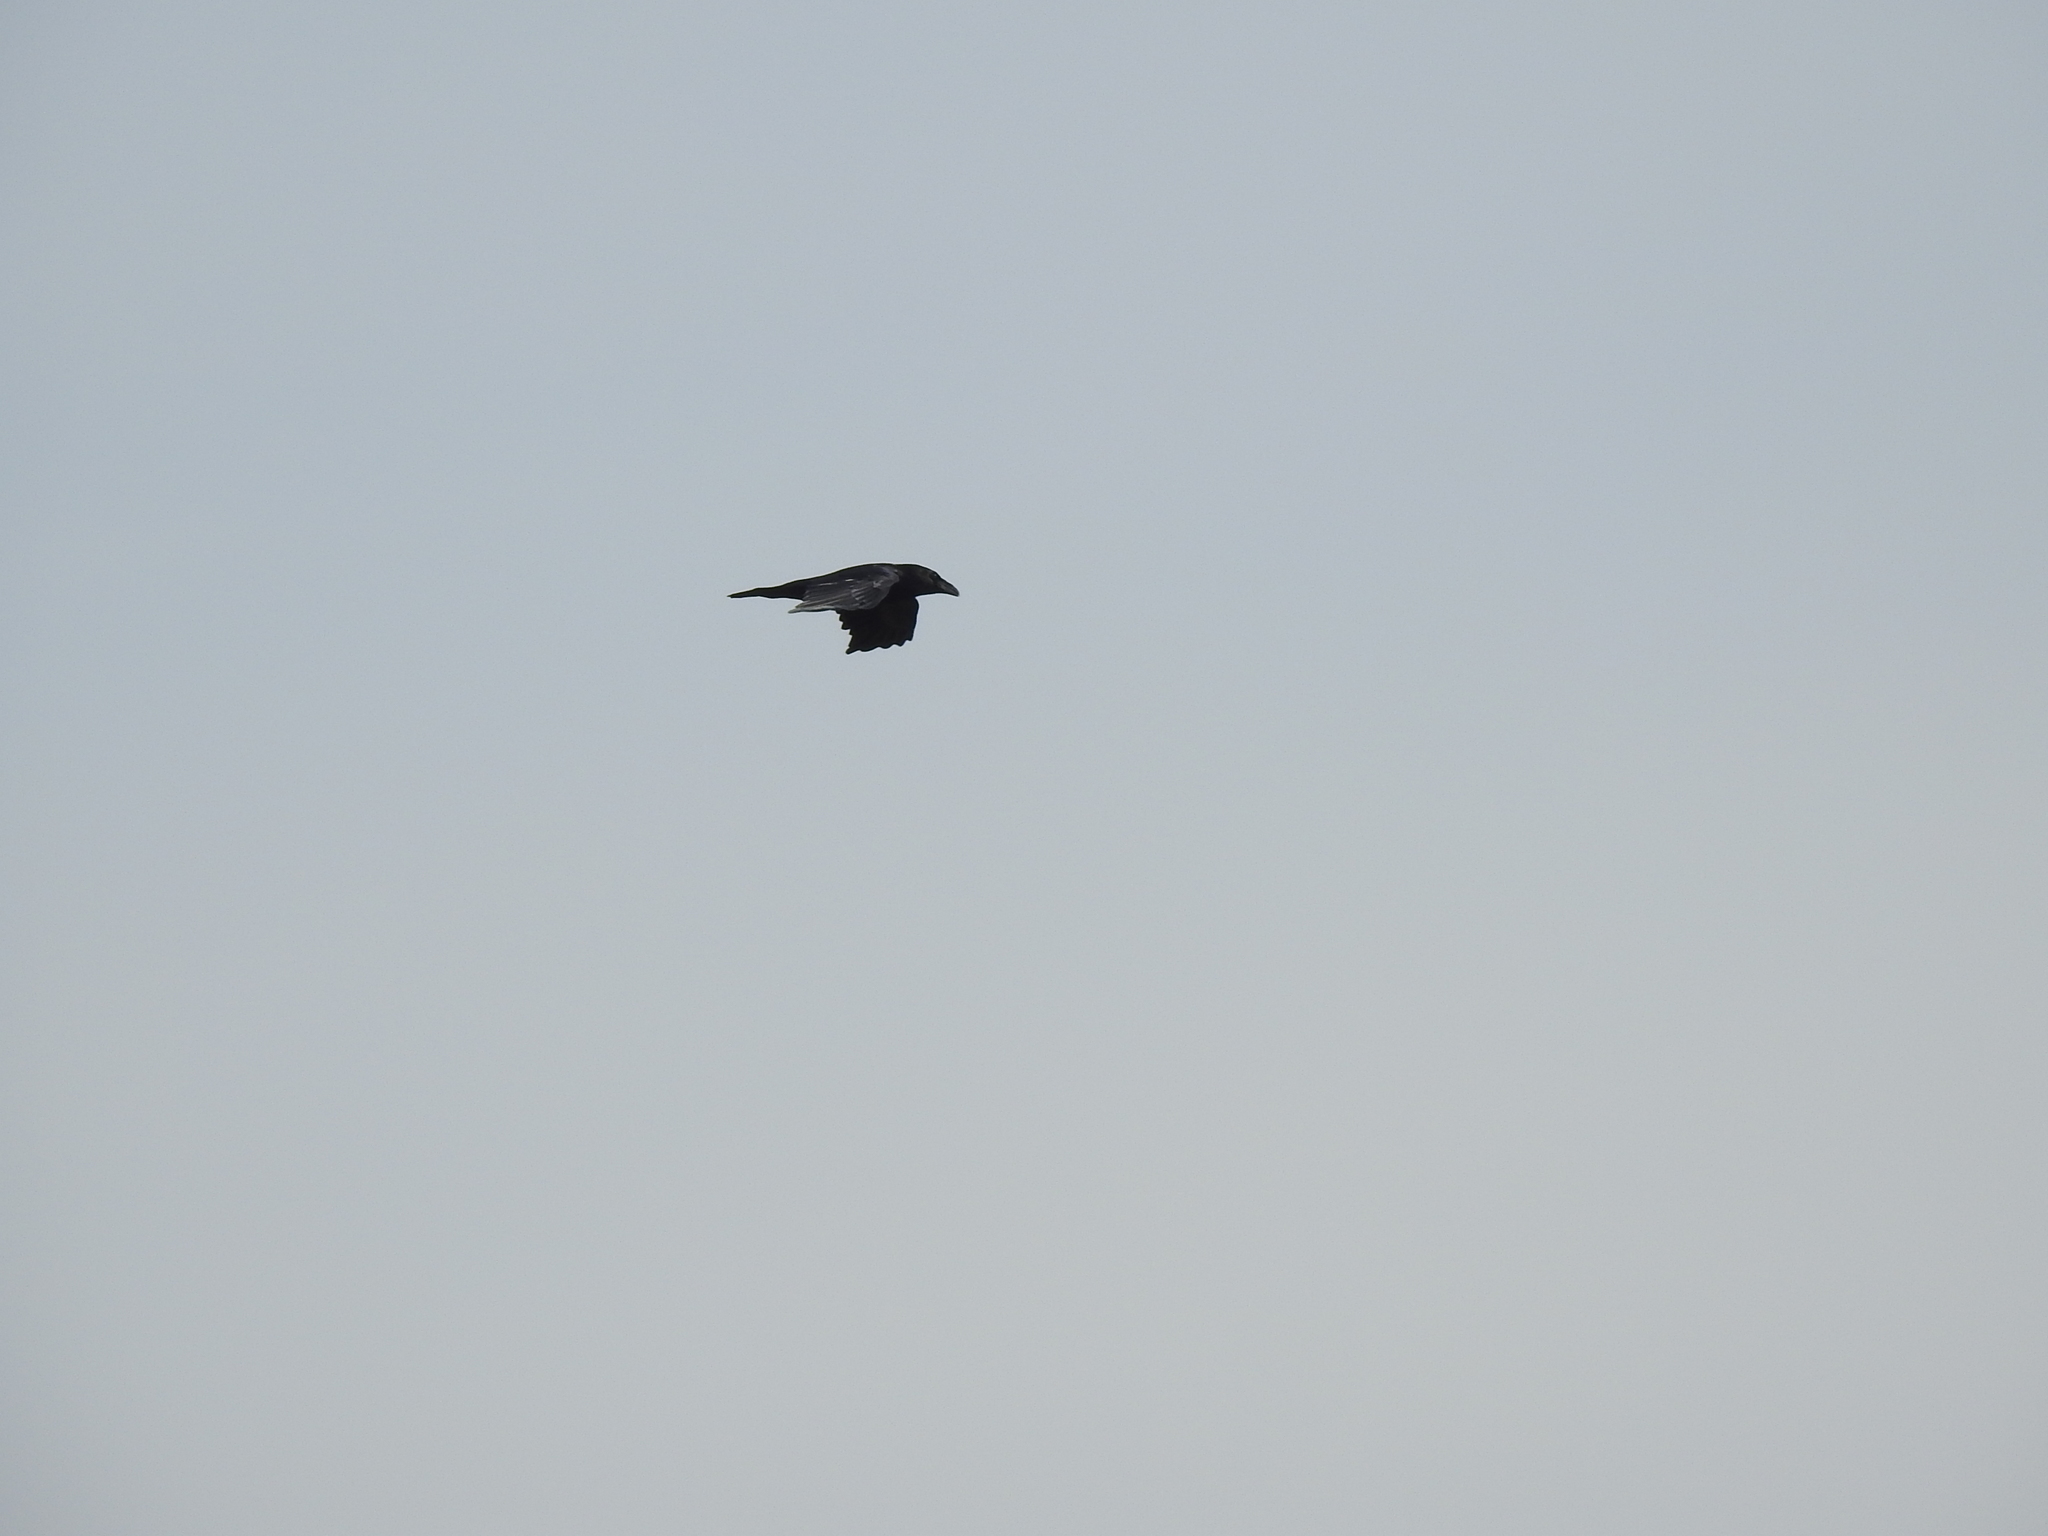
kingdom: Animalia
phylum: Chordata
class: Aves
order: Passeriformes
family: Corvidae
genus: Corvus
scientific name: Corvus corax
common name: Common raven
